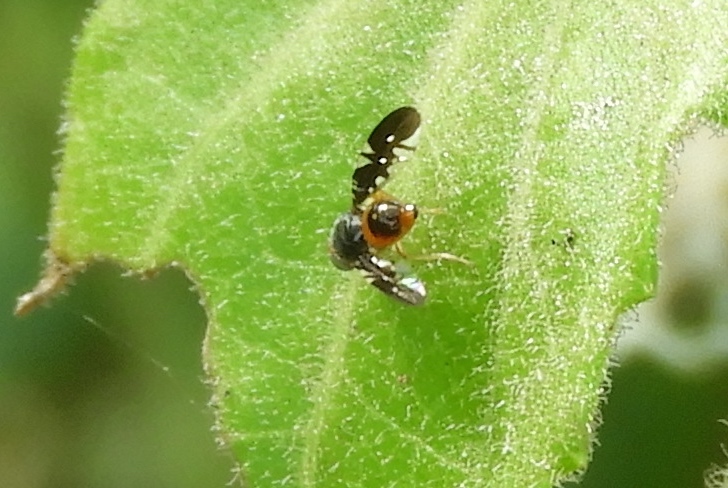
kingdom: Animalia
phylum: Arthropoda
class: Insecta
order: Diptera
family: Tephritidae
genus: Xanthaciura
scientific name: Xanthaciura
